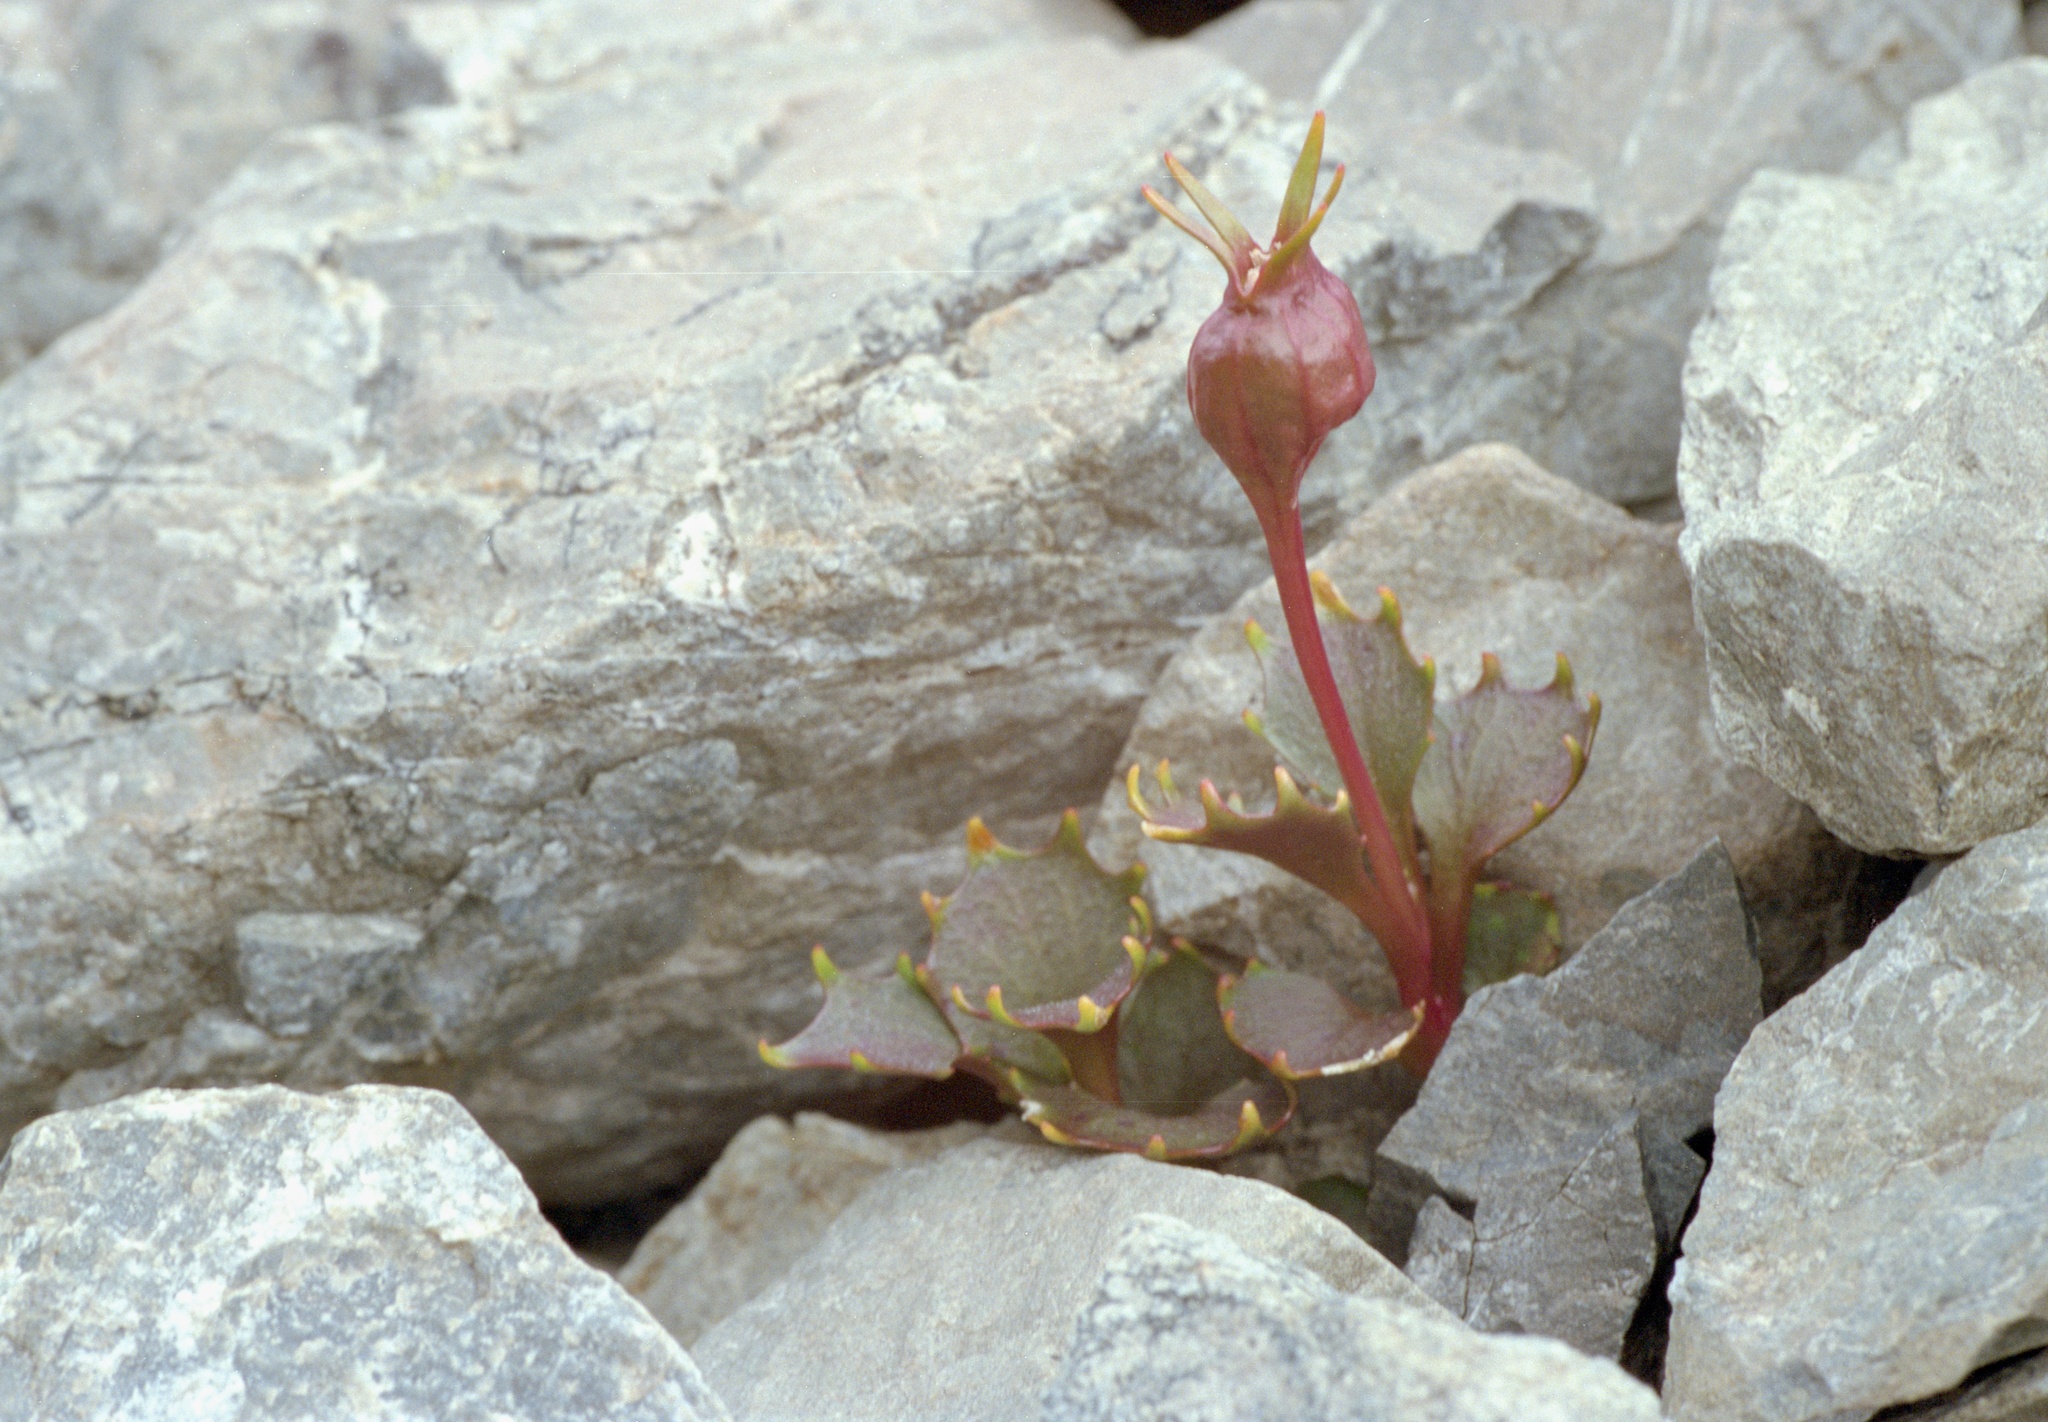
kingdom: Plantae
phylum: Tracheophyta
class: Magnoliopsida
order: Asterales
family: Campanulaceae
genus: Lobelia
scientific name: Lobelia roughii
